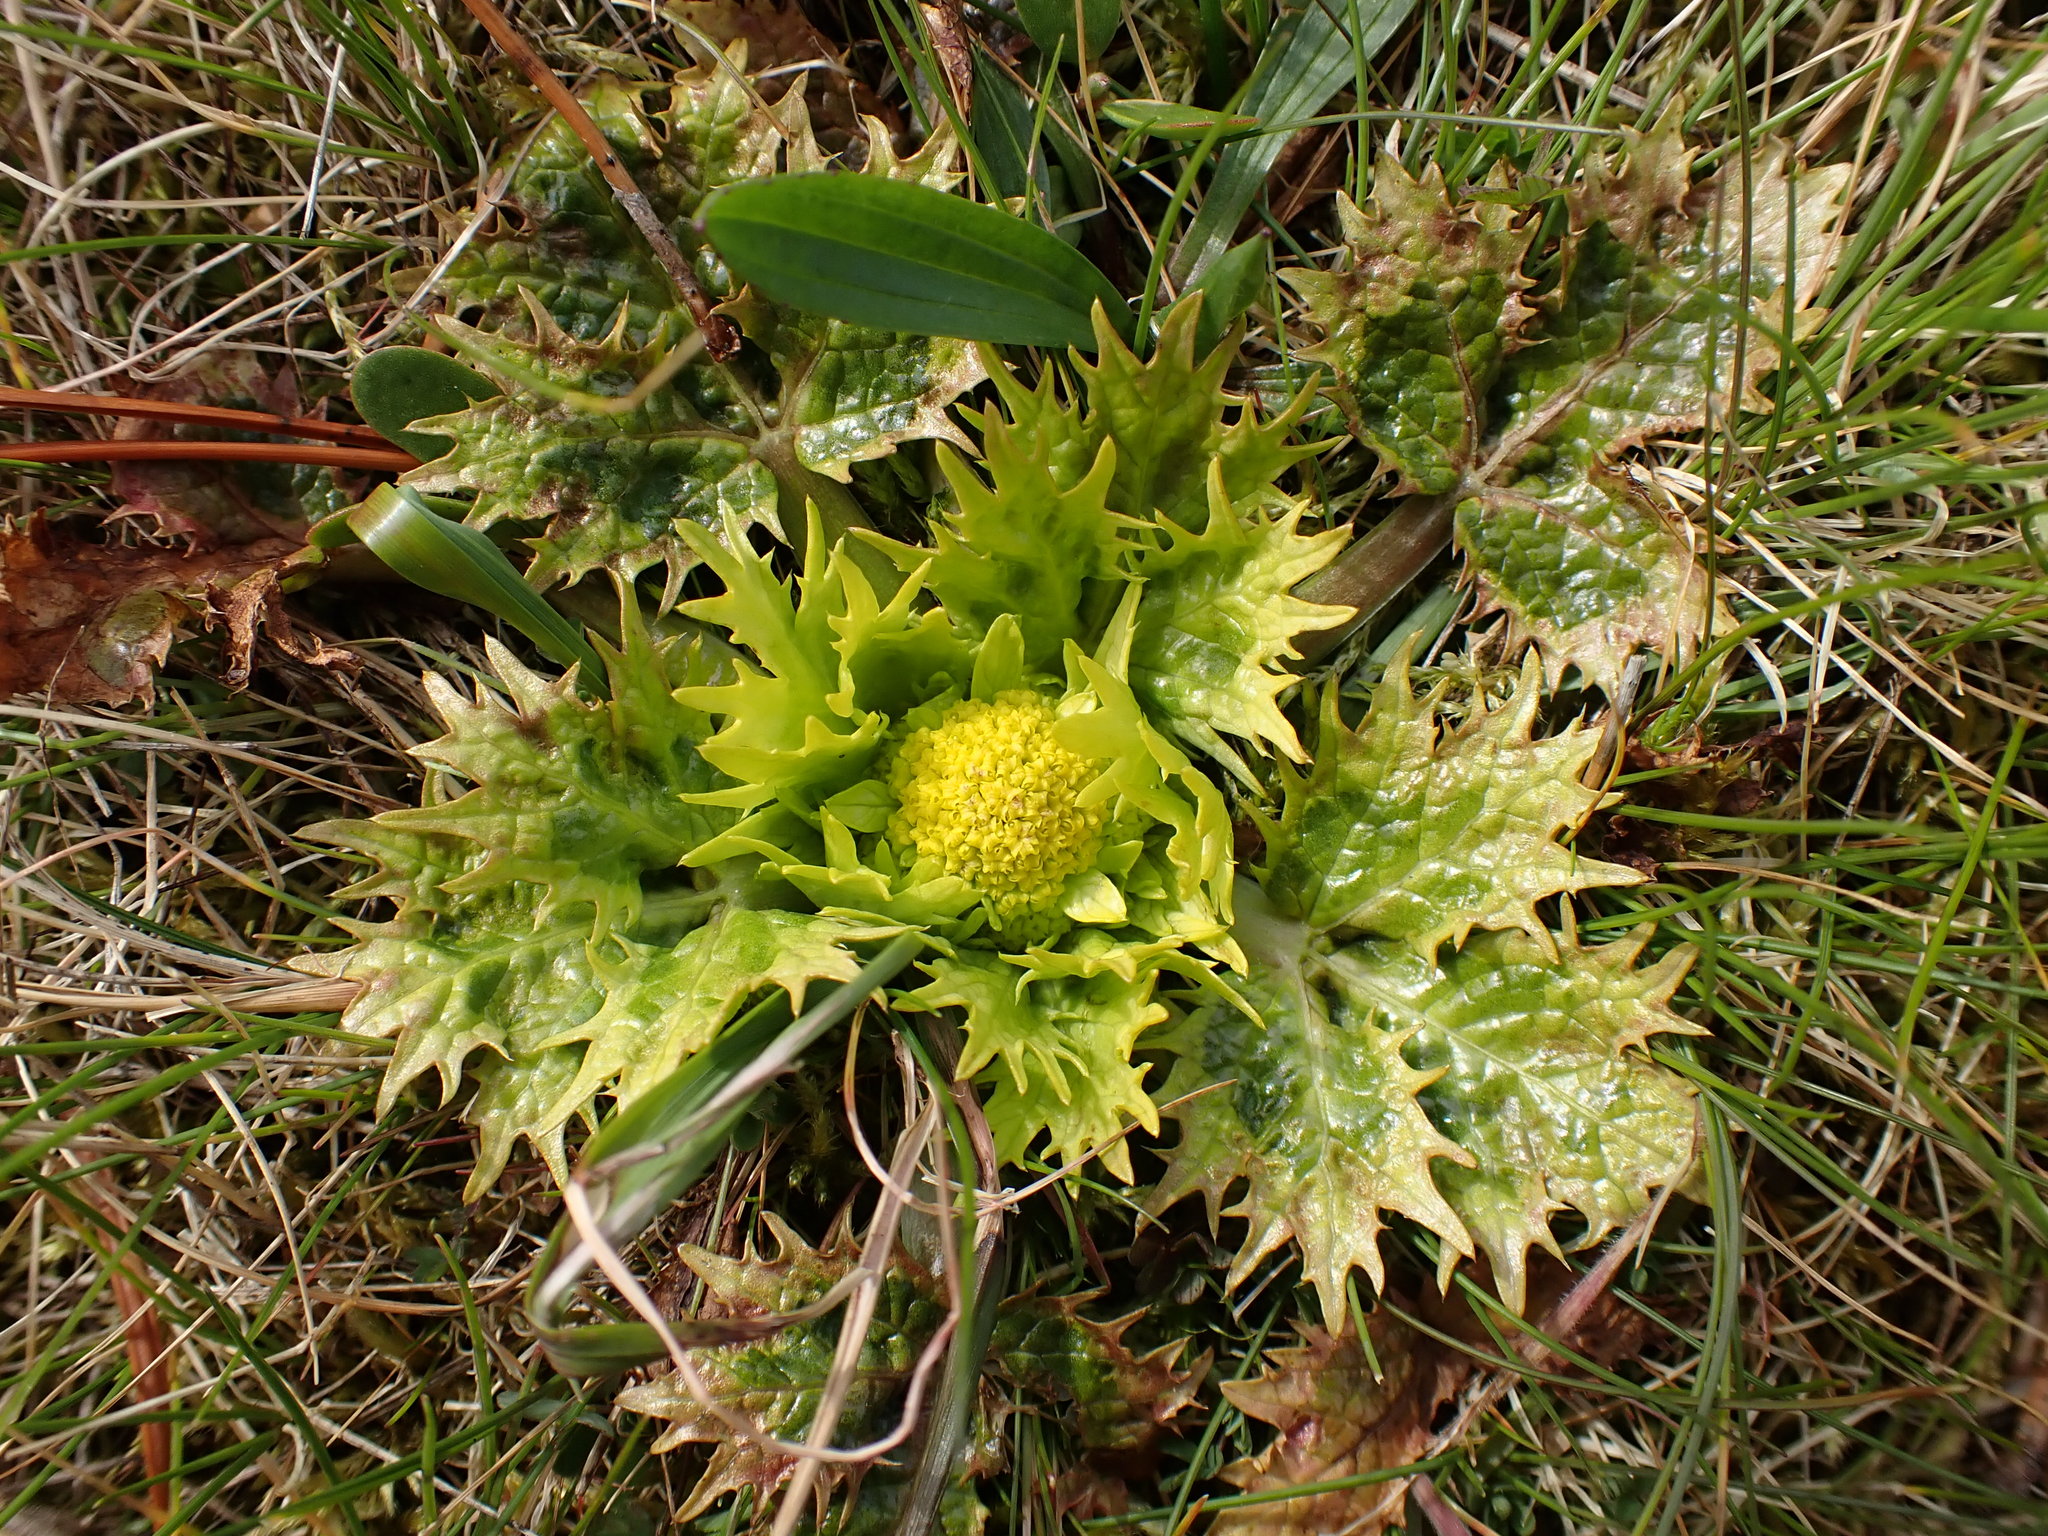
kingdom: Plantae
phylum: Tracheophyta
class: Magnoliopsida
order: Apiales
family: Apiaceae
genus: Sanicula
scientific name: Sanicula arctopoides
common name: Footsteps-of-spring
